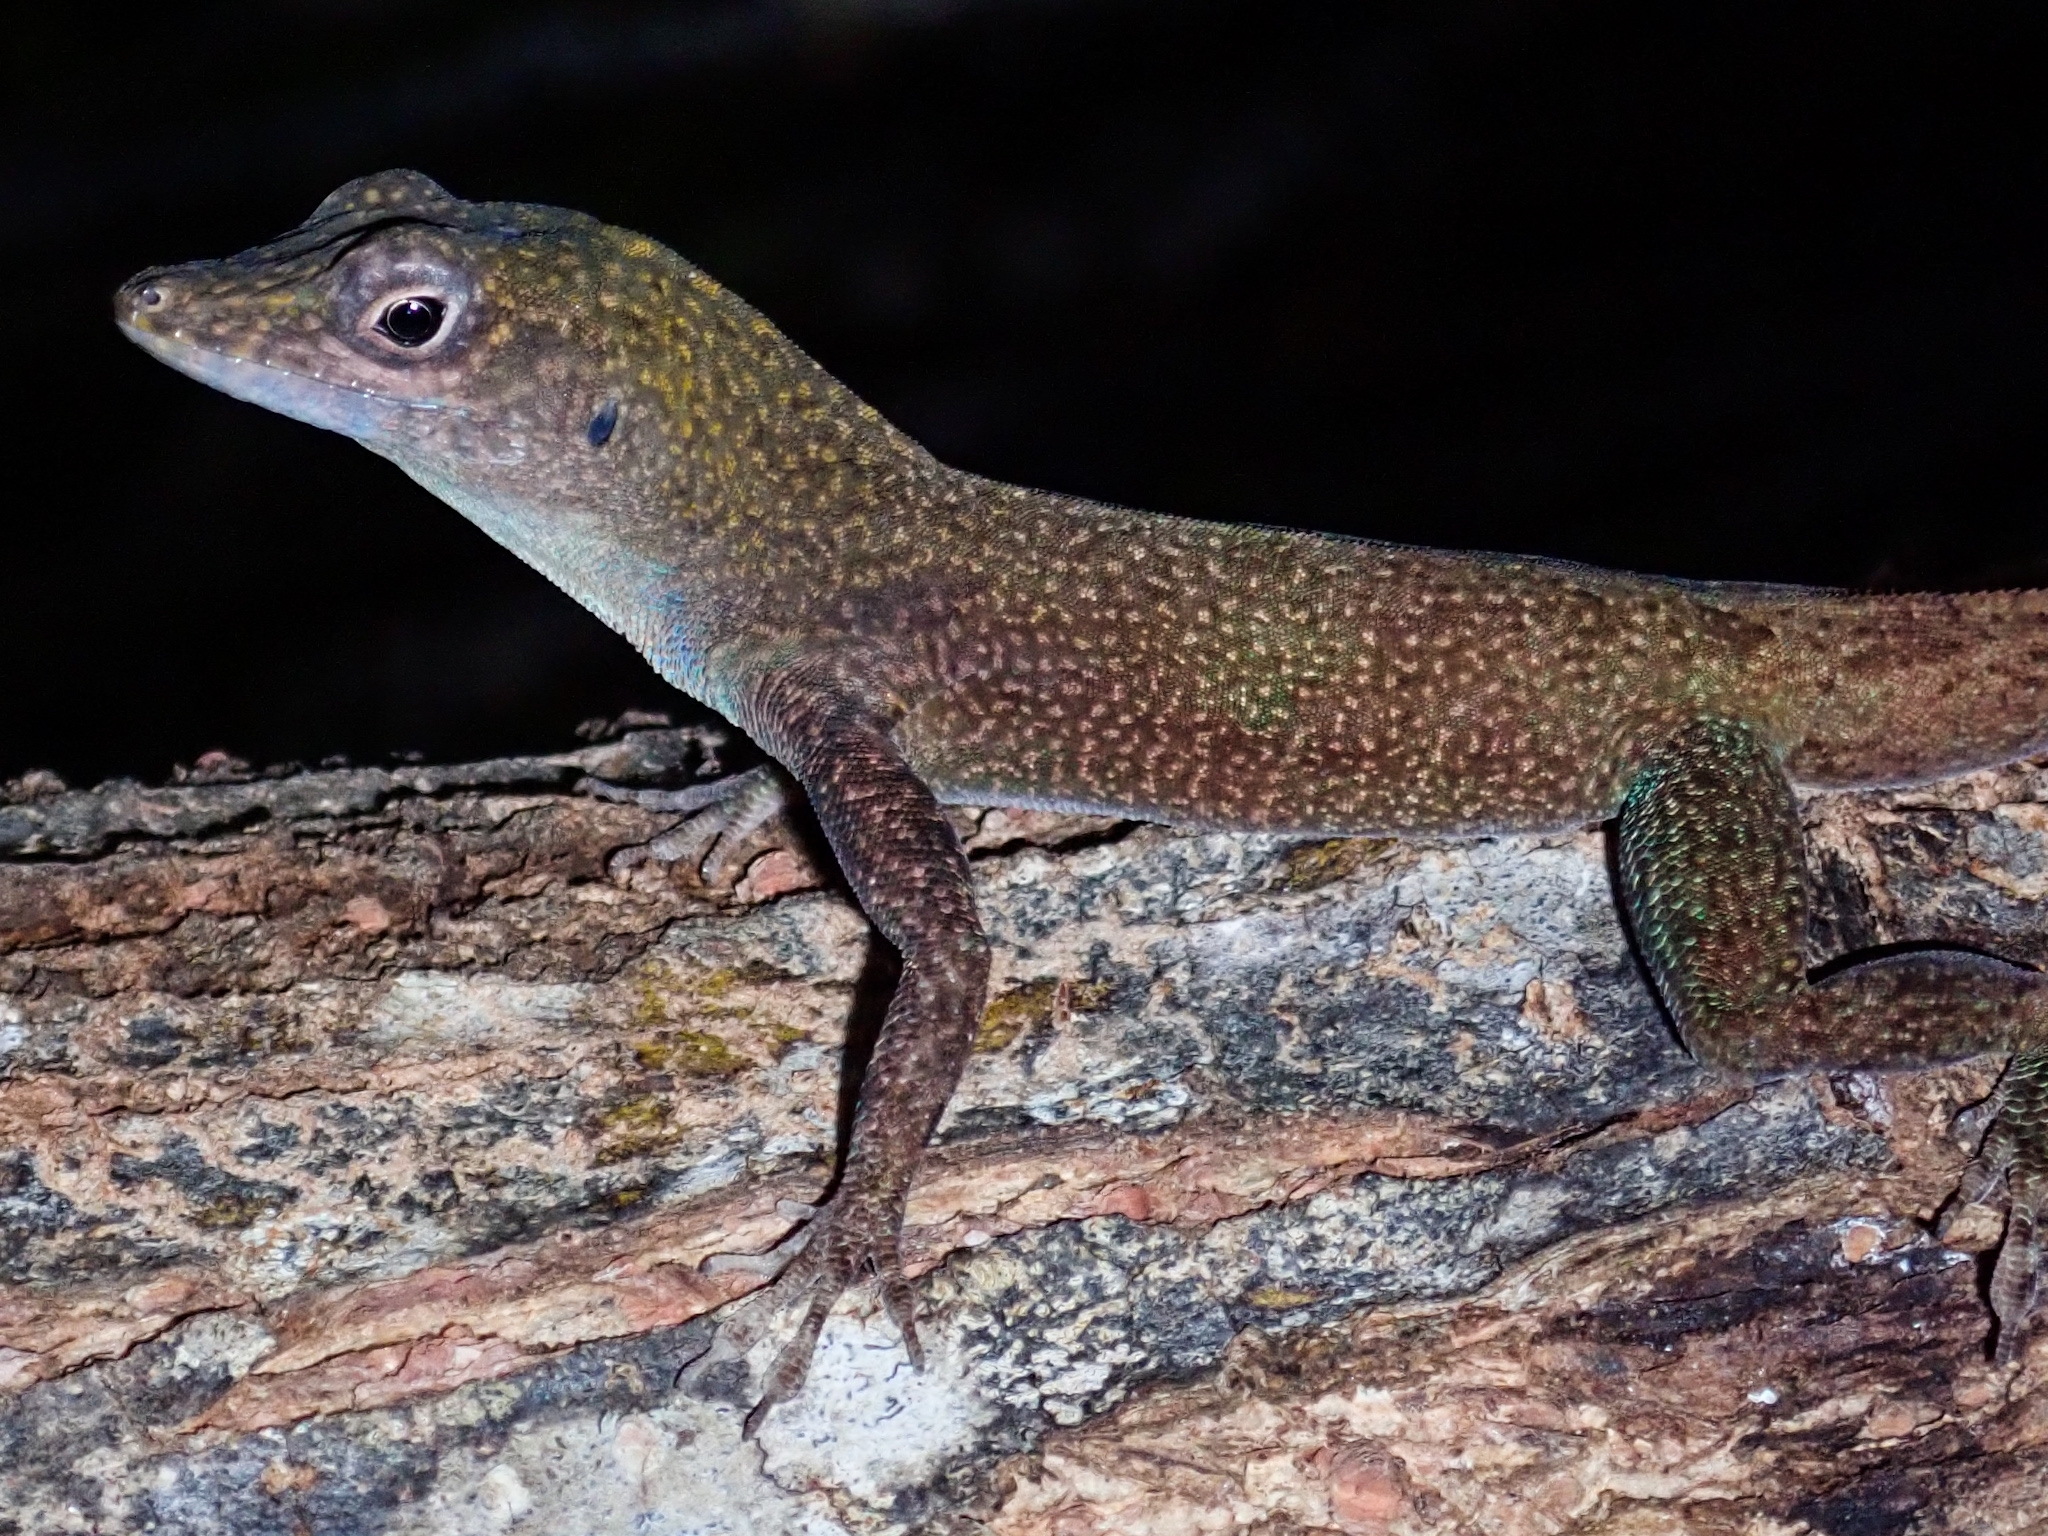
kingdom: Animalia
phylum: Chordata
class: Squamata
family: Dactyloidae
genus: Anolis
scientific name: Anolis conspersus
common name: Grand cayman anole
